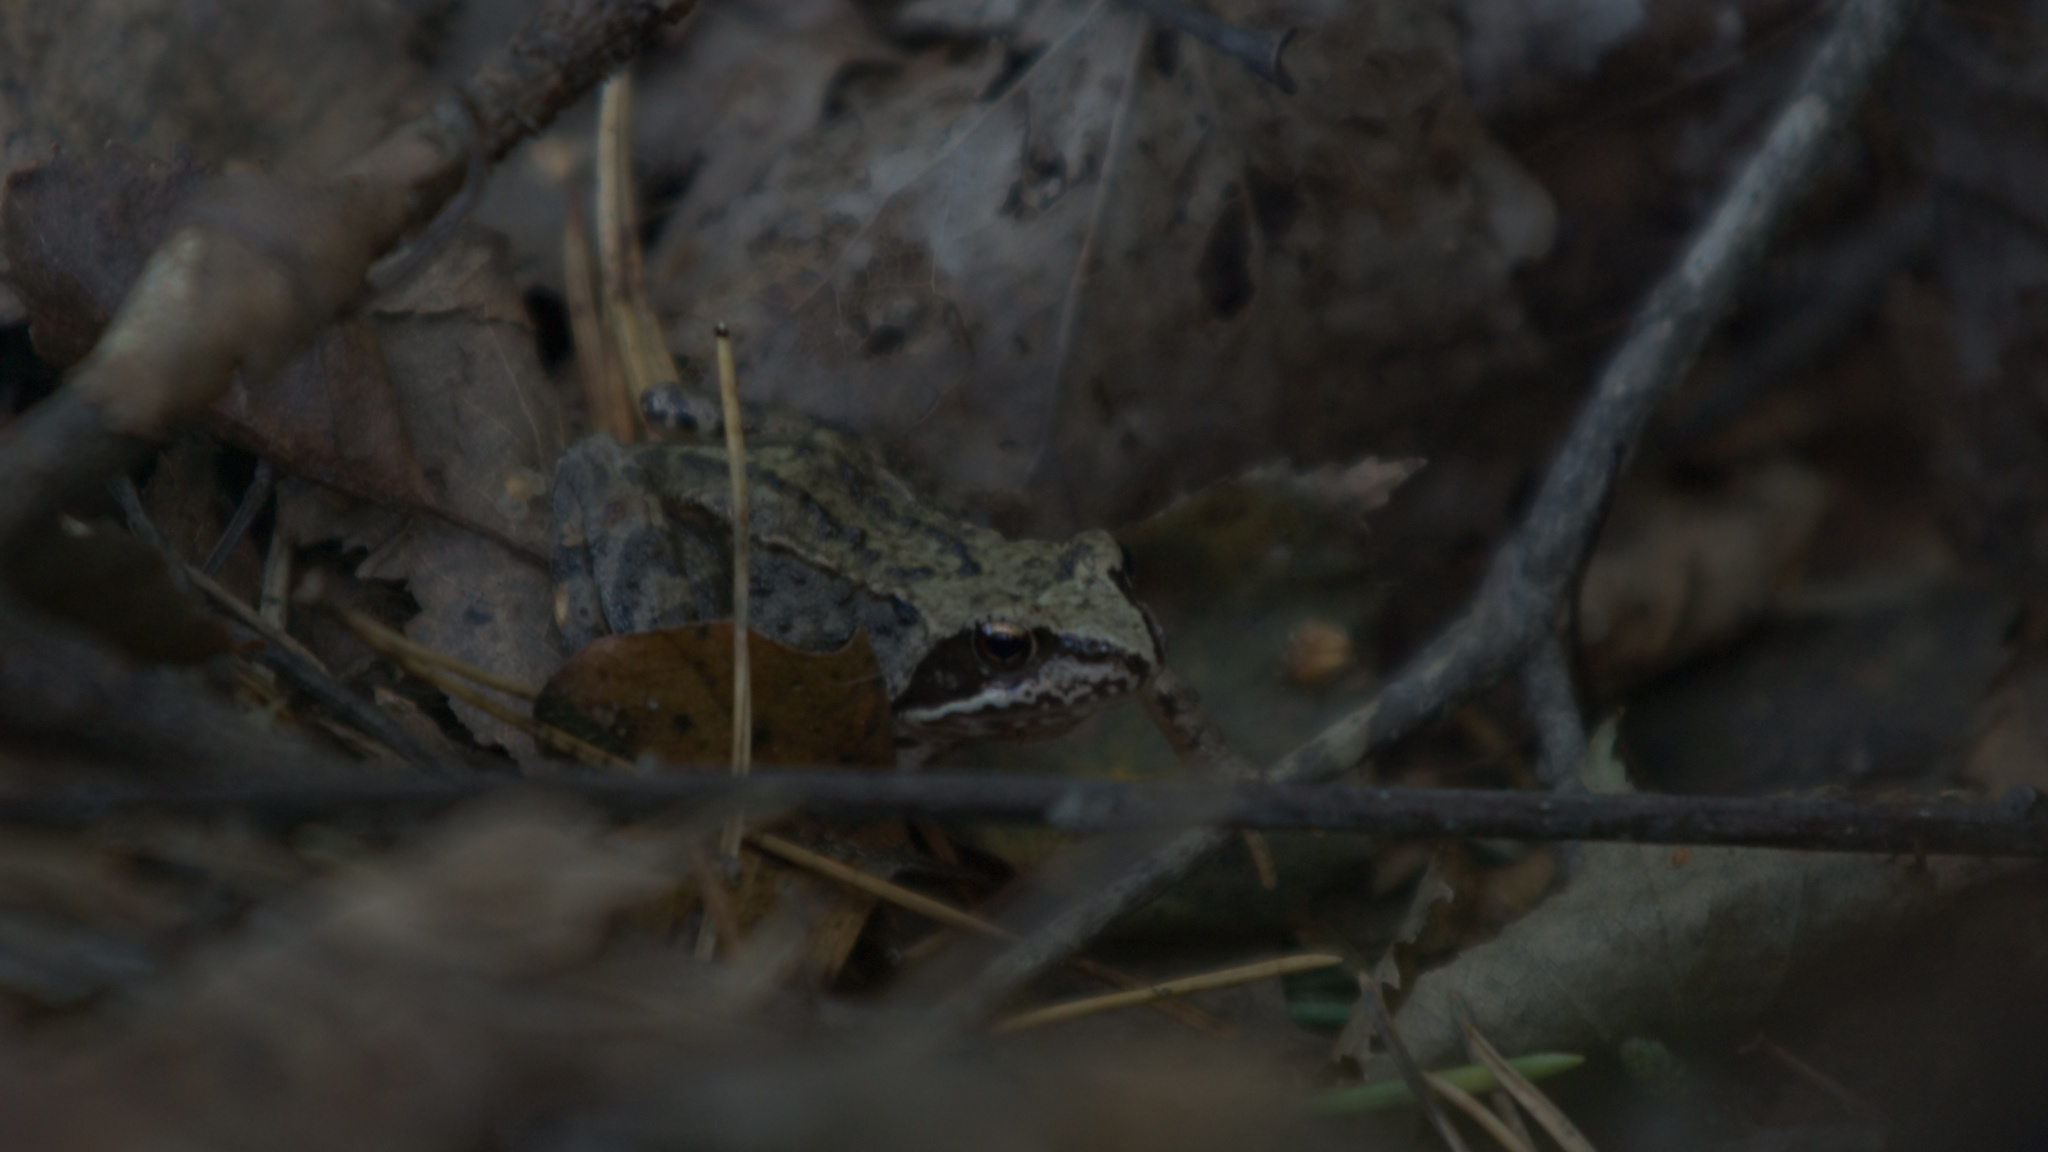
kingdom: Animalia
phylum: Chordata
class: Amphibia
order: Anura
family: Ranidae
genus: Rana
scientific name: Rana temporaria
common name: Common frog
